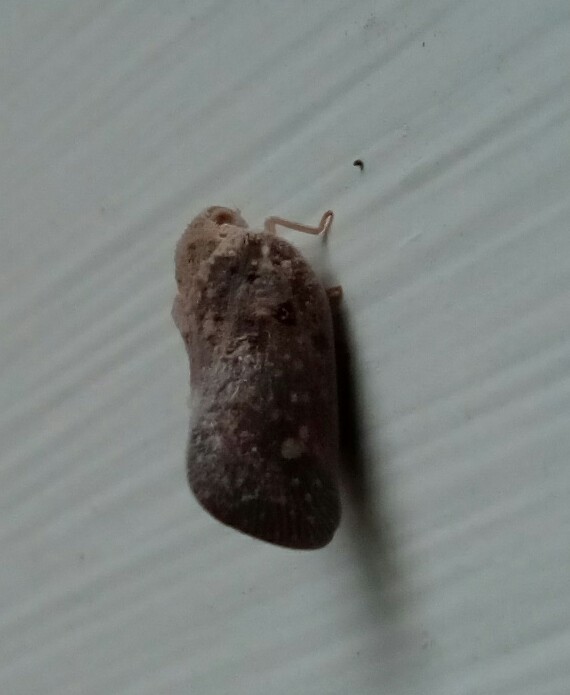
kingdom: Animalia
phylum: Arthropoda
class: Insecta
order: Hemiptera
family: Flatidae
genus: Metcalfa
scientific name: Metcalfa pruinosa
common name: Citrus flatid planthopper
